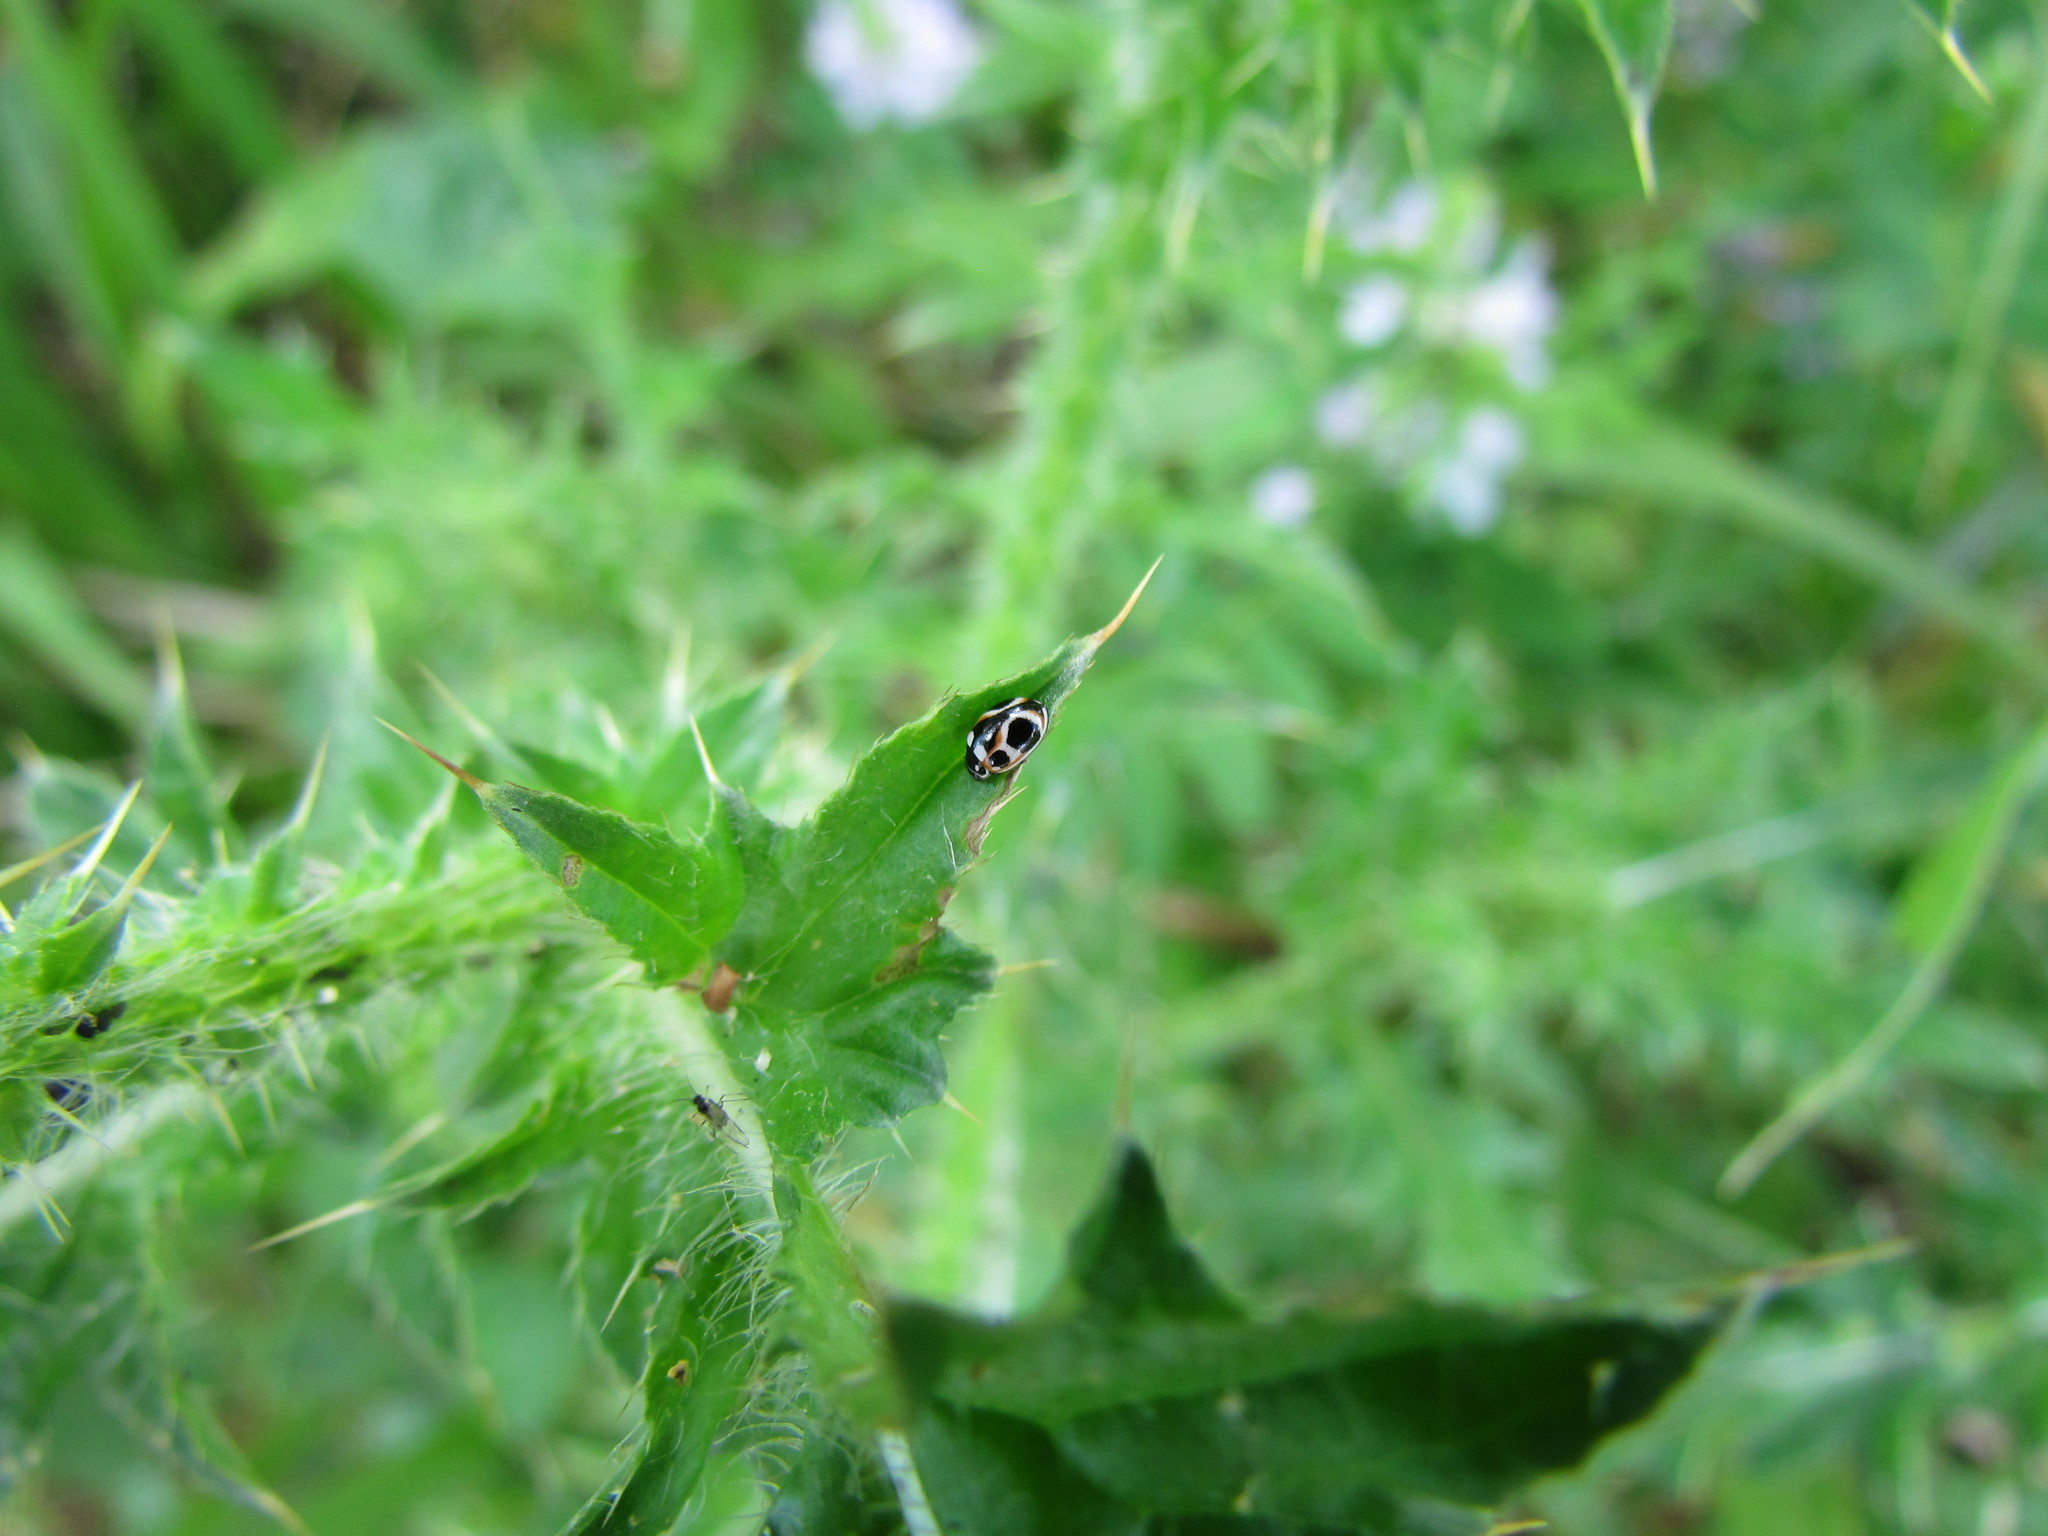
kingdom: Animalia
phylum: Arthropoda
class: Insecta
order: Coleoptera
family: Coccinellidae
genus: Cycloneda
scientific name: Cycloneda ancoralis
